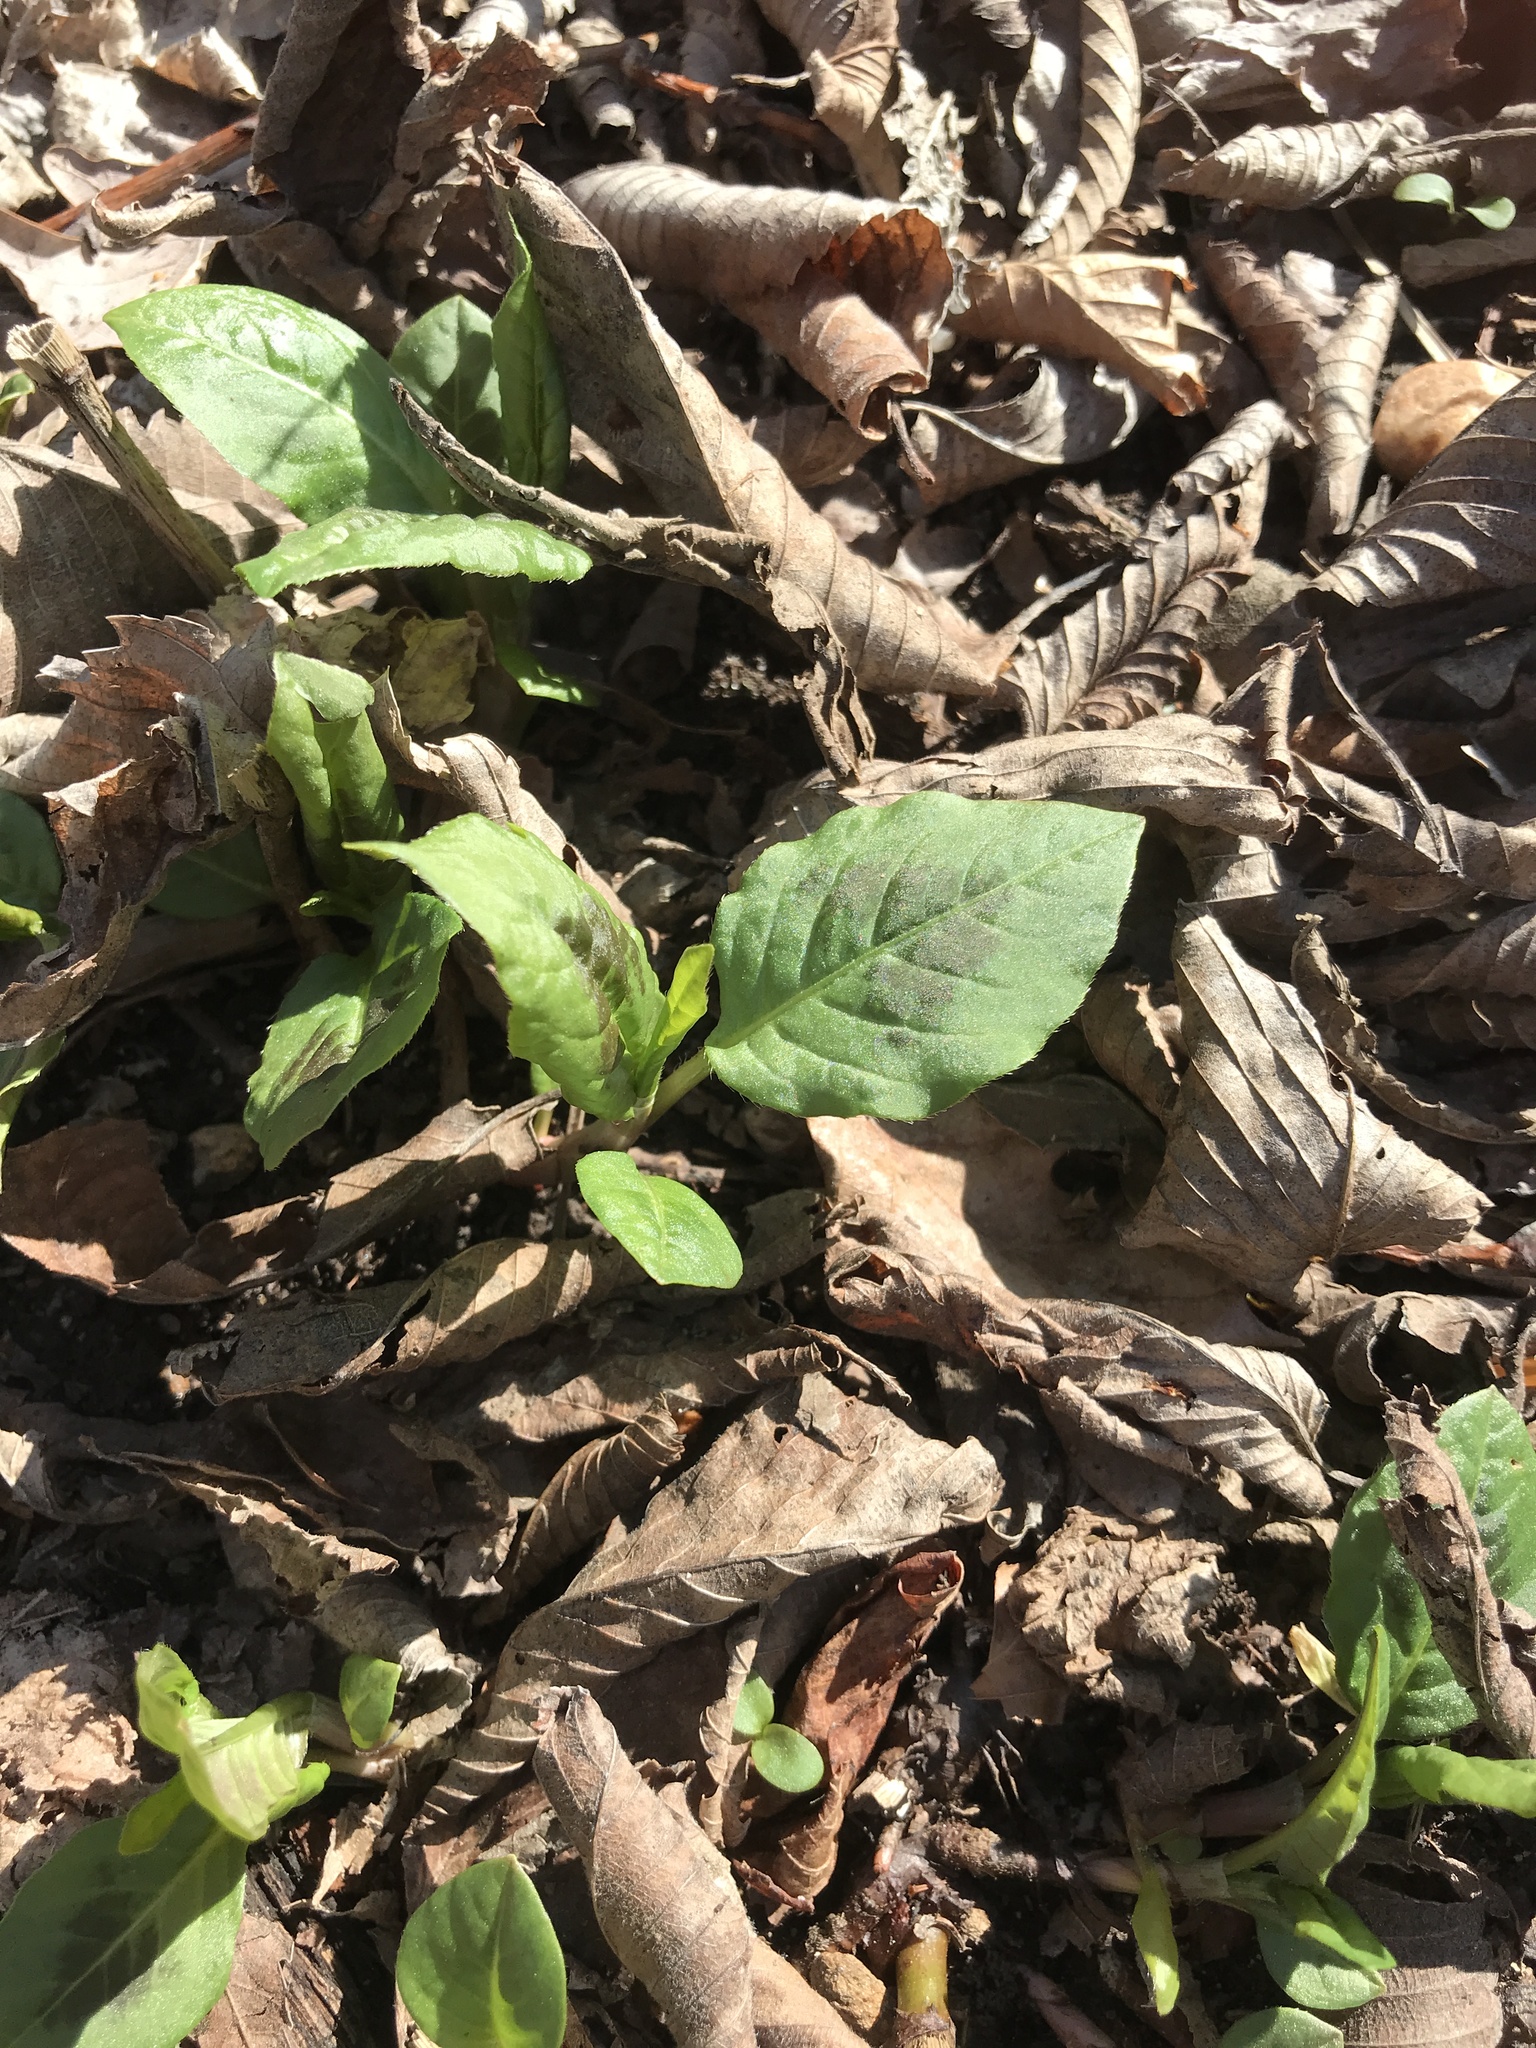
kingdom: Plantae
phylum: Tracheophyta
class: Magnoliopsida
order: Caryophyllales
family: Polygonaceae
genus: Persicaria
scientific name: Persicaria virginiana
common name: Jumpseed
